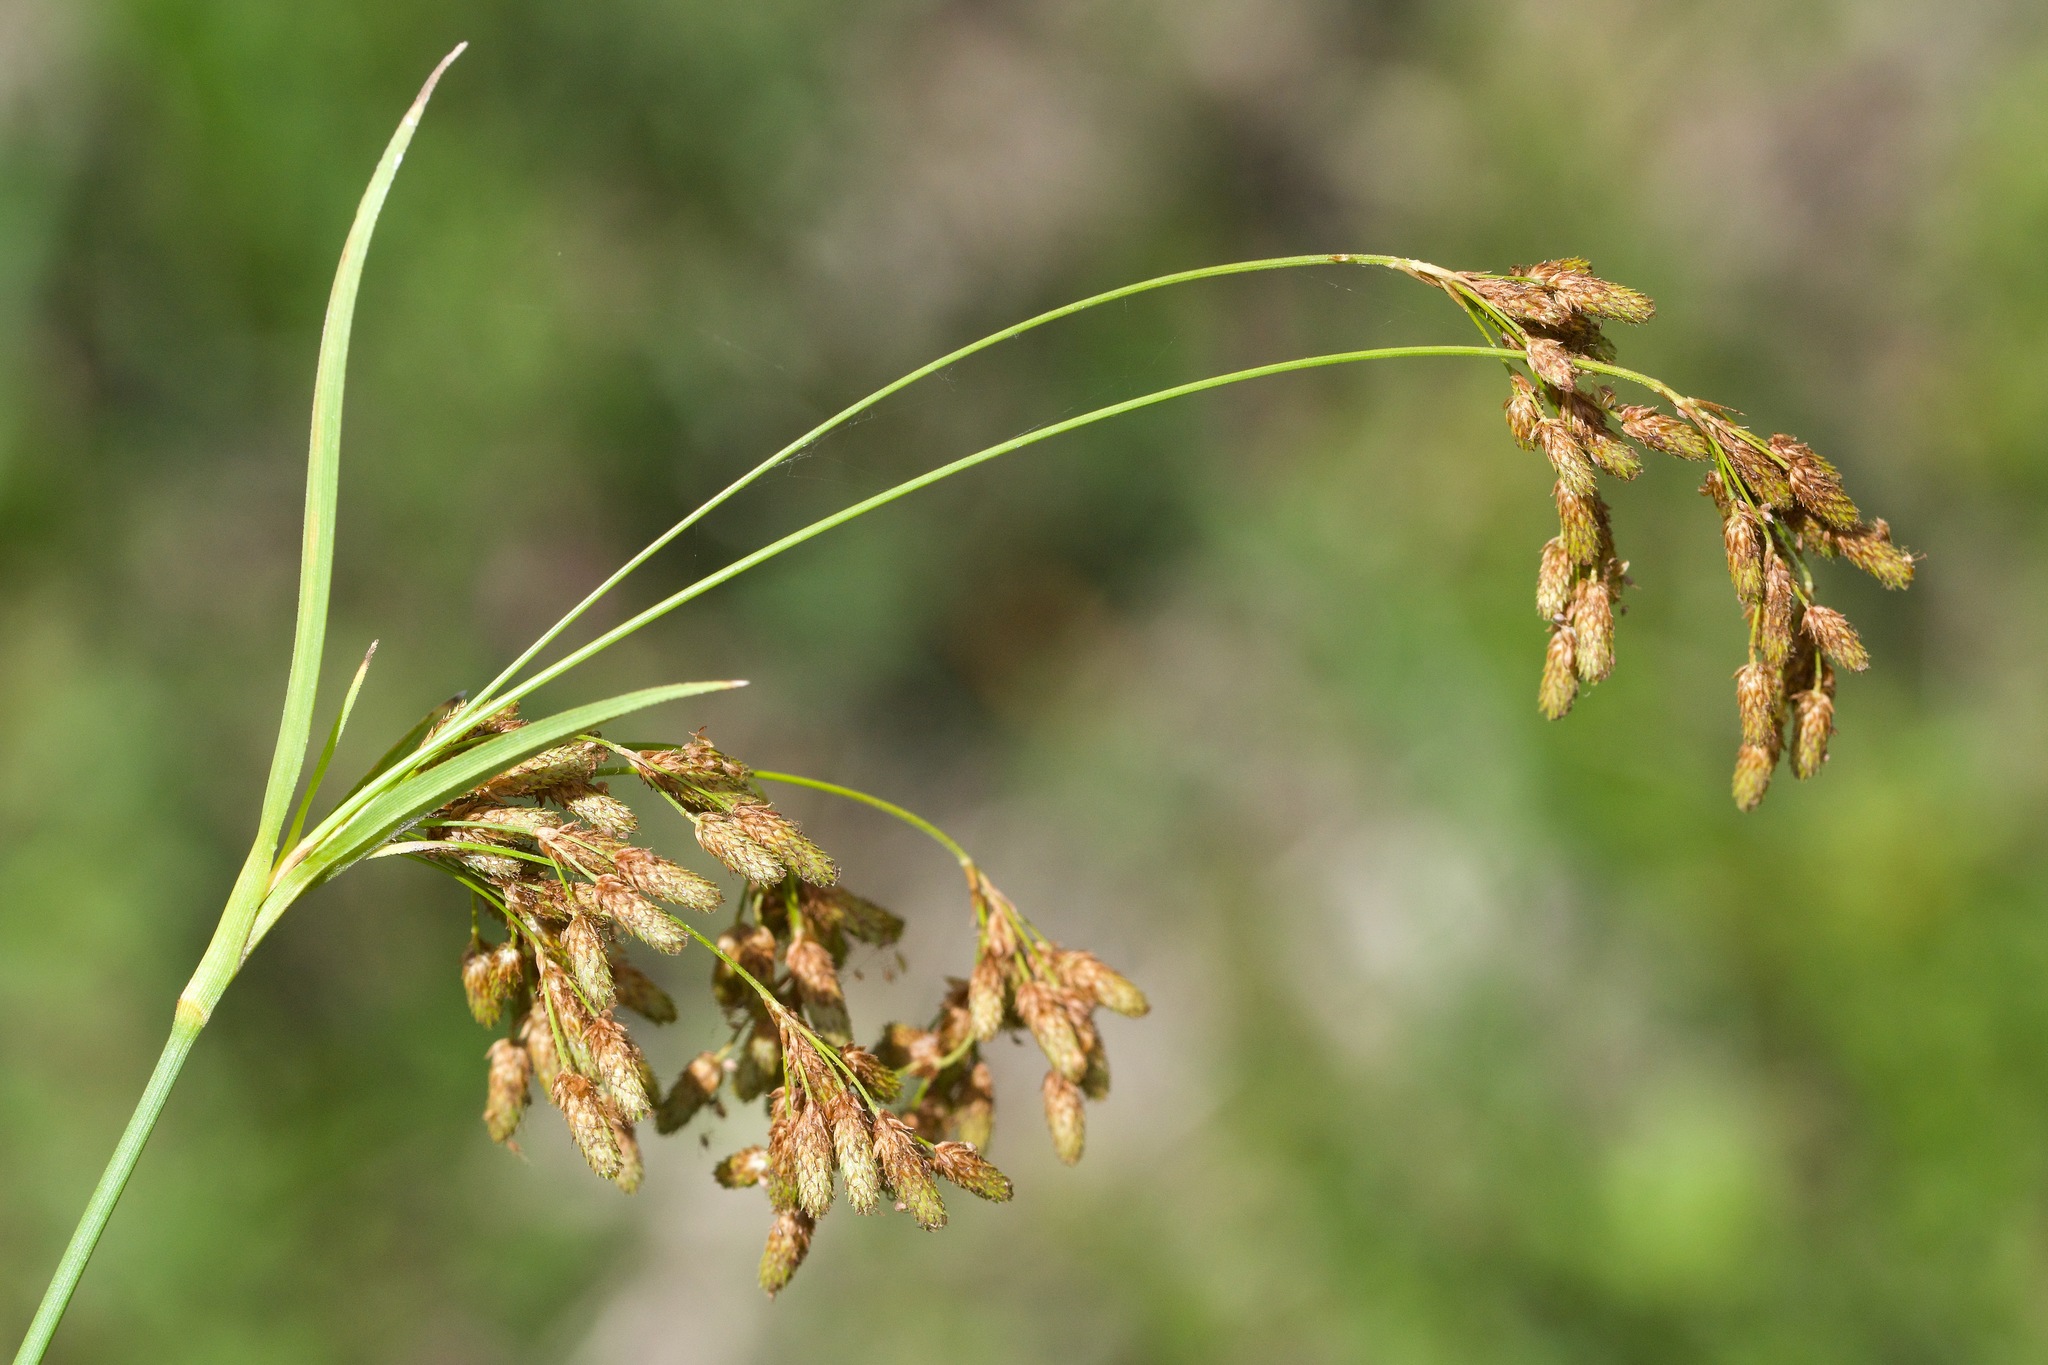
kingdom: Plantae
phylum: Tracheophyta
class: Liliopsida
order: Poales
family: Cyperaceae
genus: Scirpus
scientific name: Scirpus pendulus
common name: Nodding bulrush
